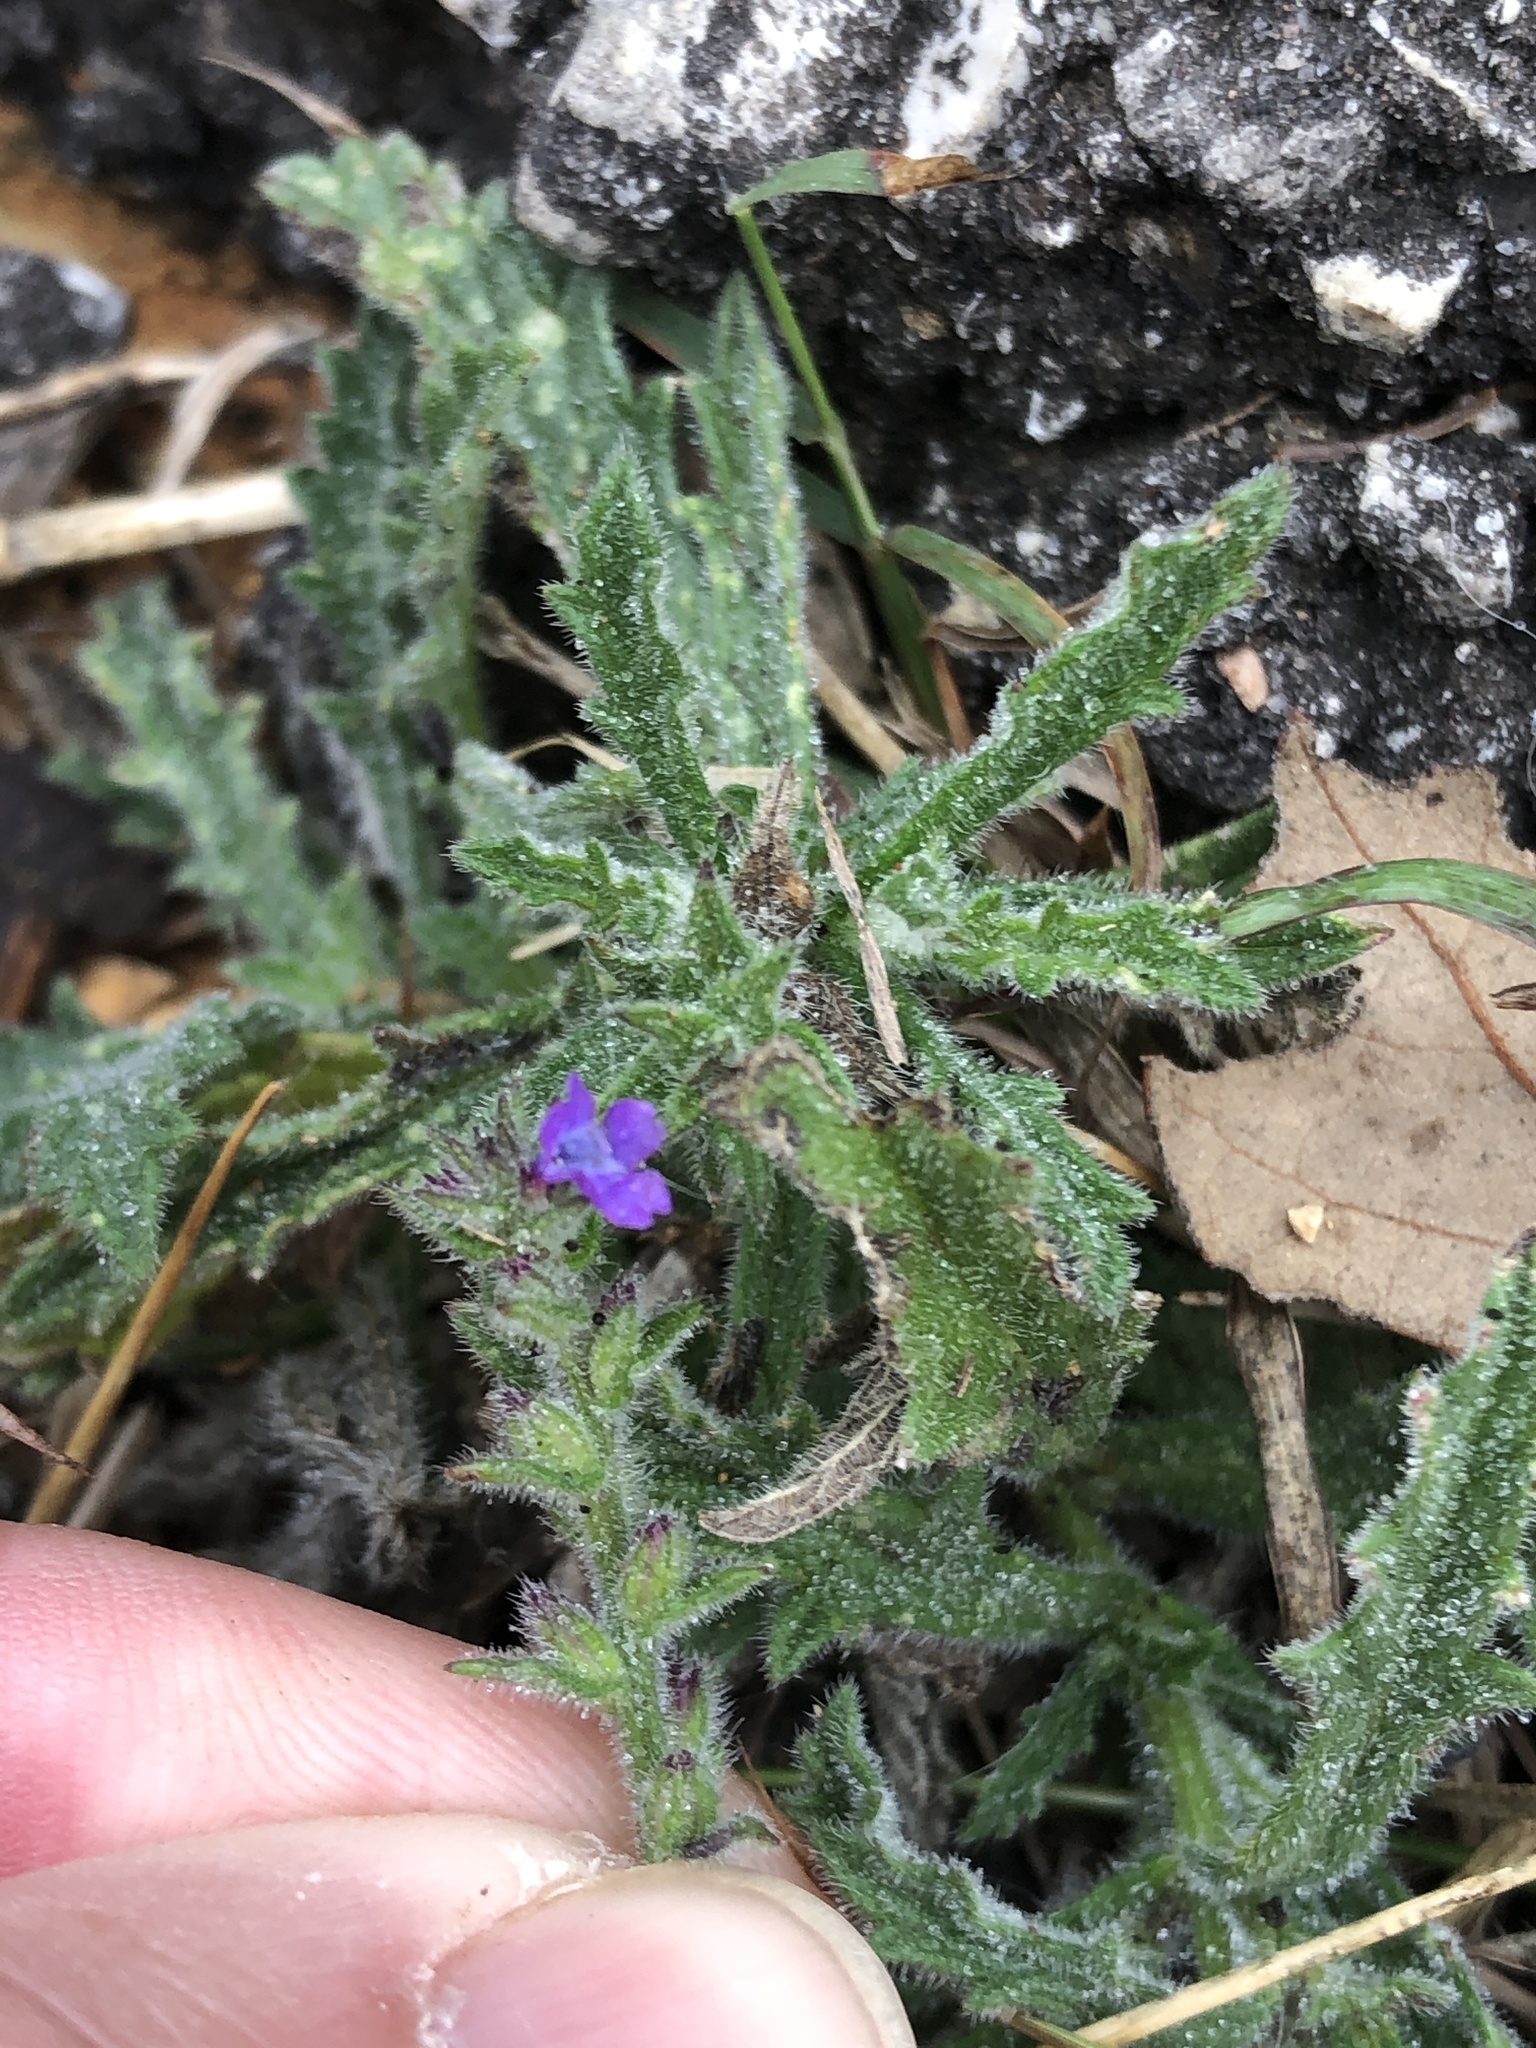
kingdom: Plantae
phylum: Tracheophyta
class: Magnoliopsida
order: Lamiales
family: Verbenaceae
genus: Verbena
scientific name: Verbena canescens
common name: Gray vervain
